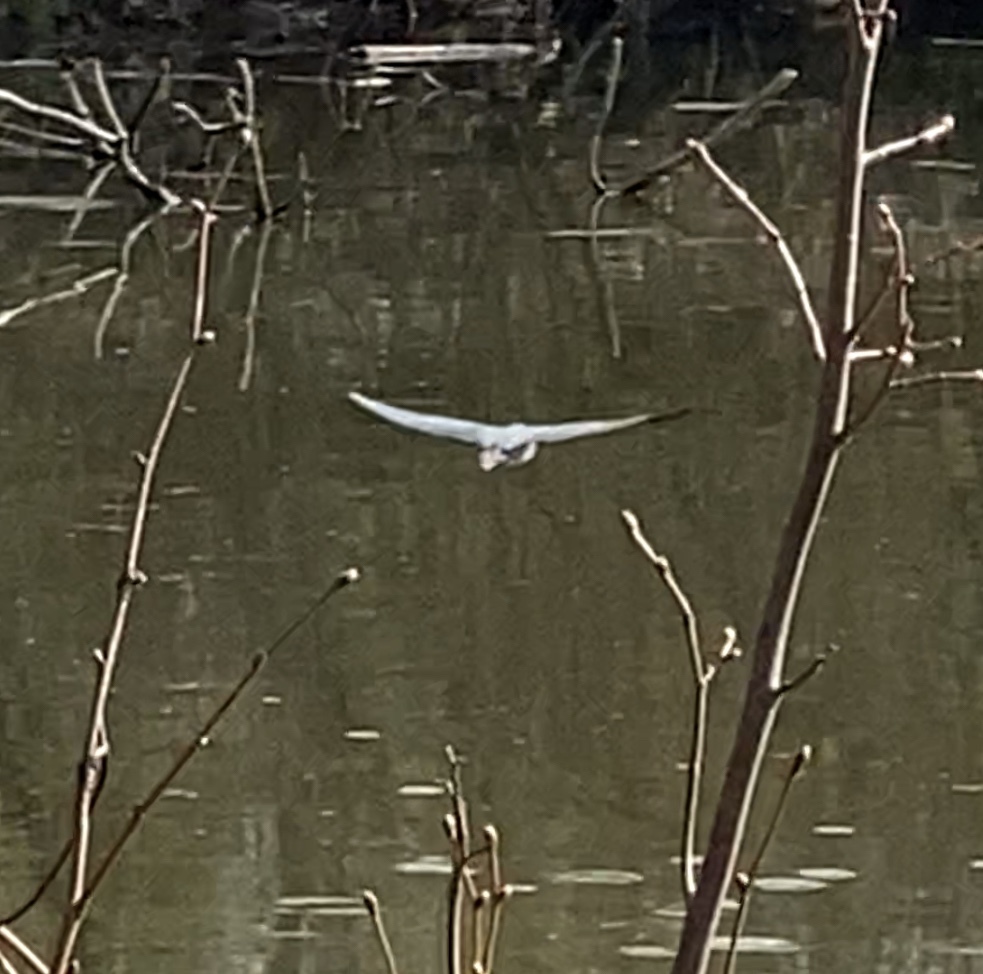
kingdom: Animalia
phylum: Chordata
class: Aves
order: Pelecaniformes
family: Ardeidae
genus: Butorides
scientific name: Butorides virescens
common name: Green heron
